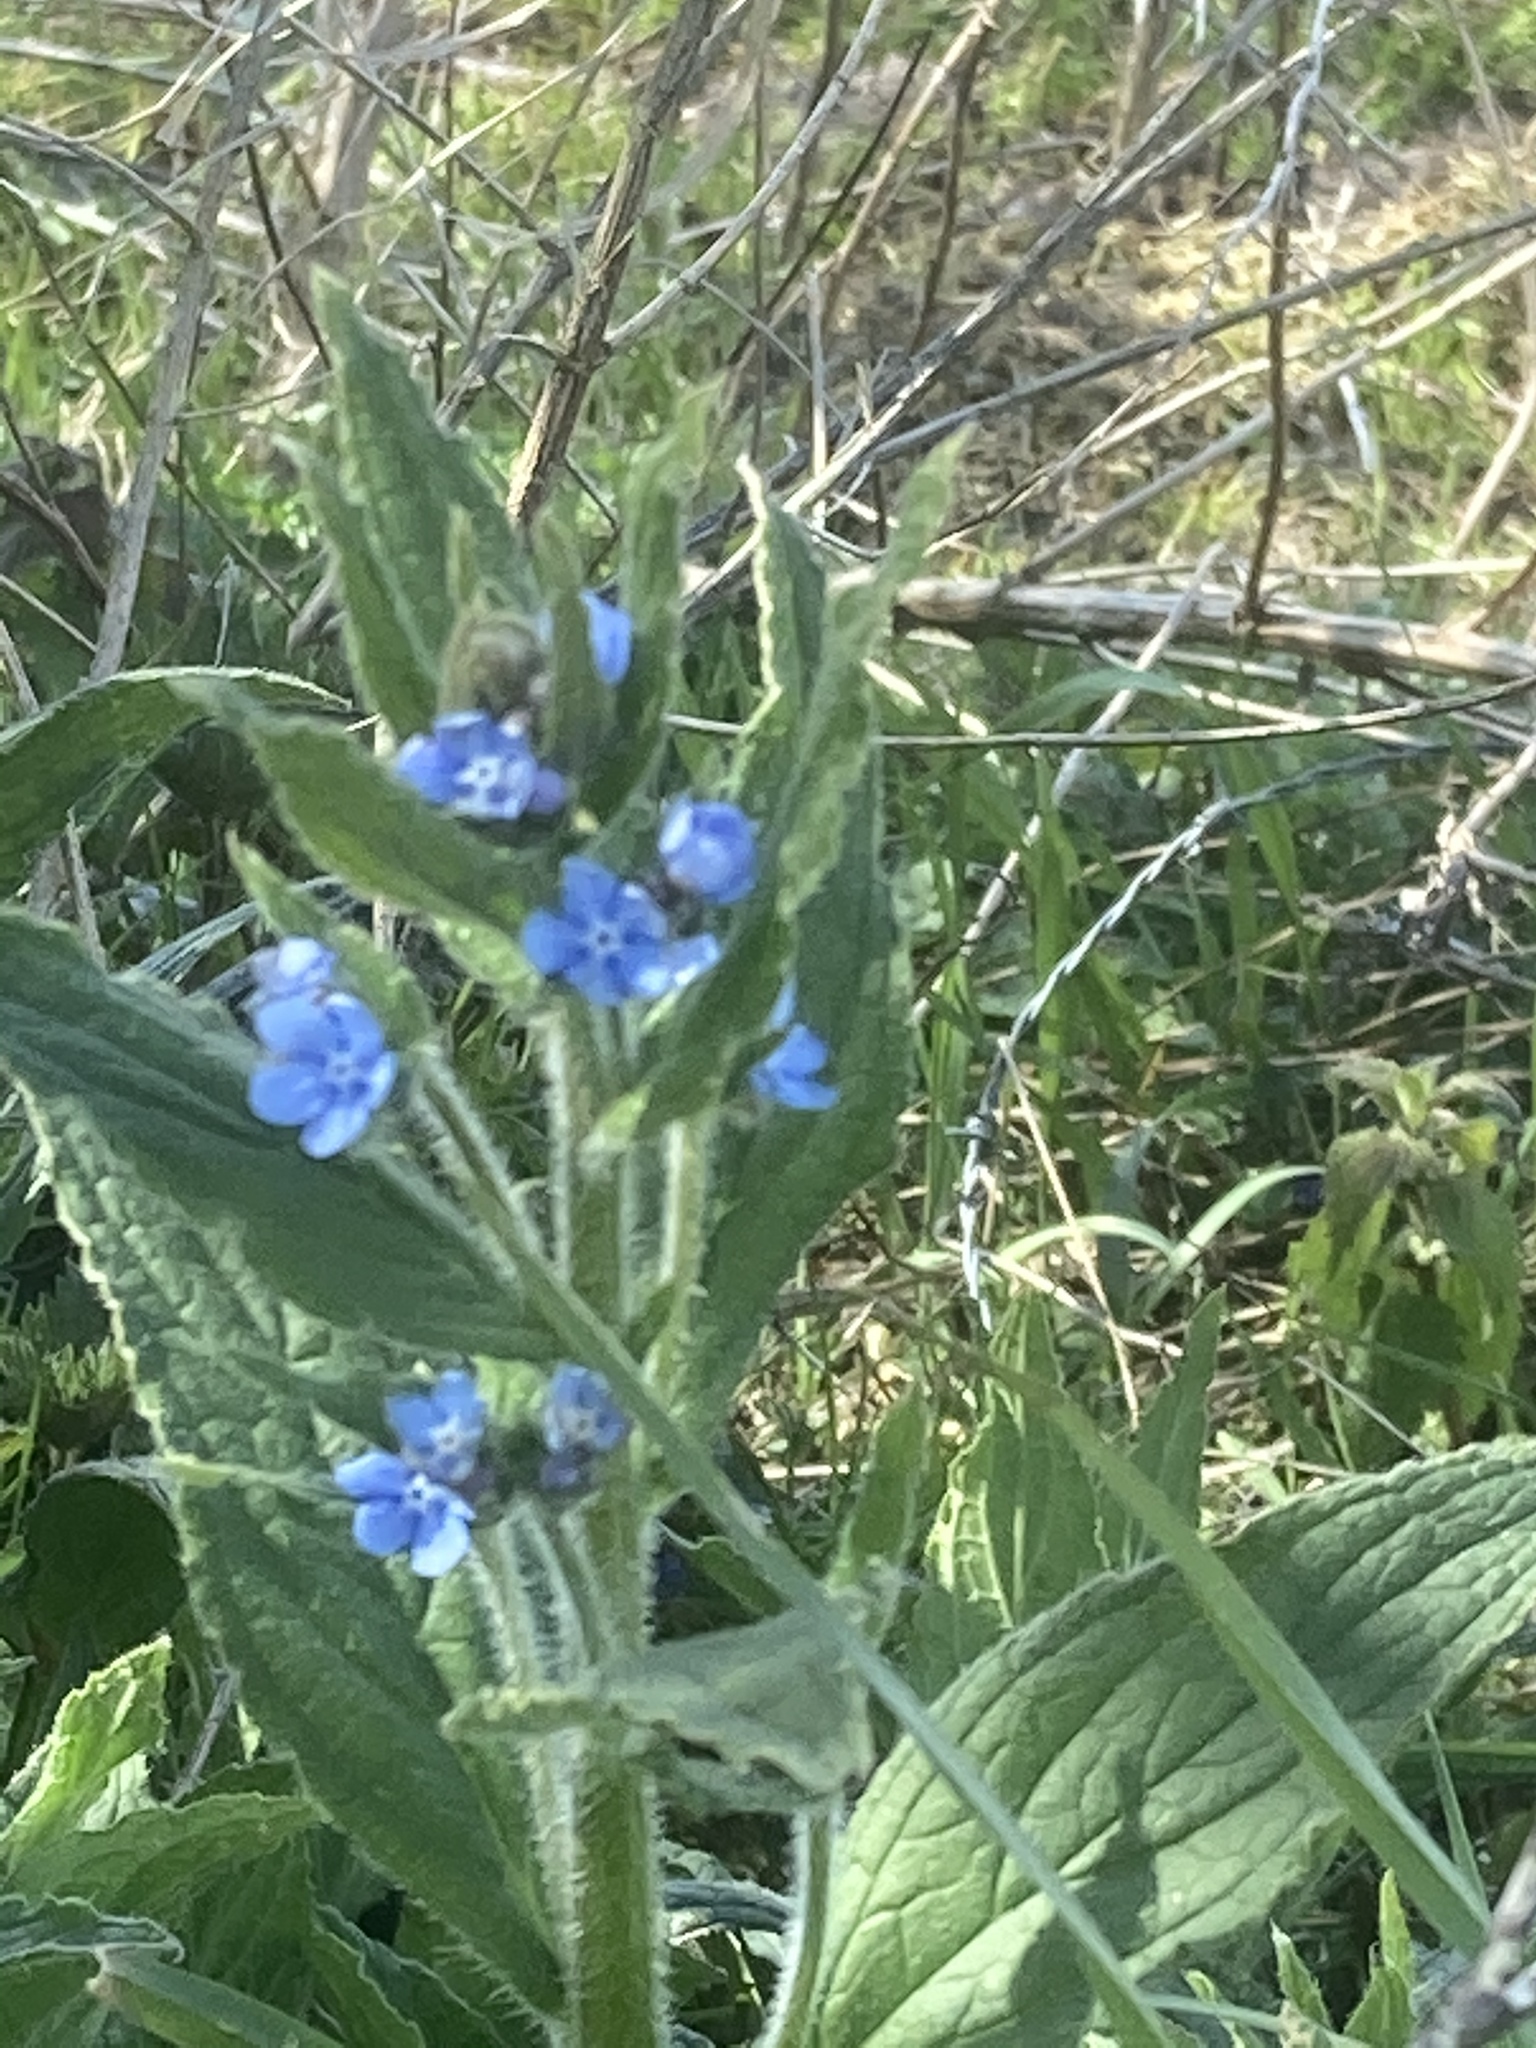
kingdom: Plantae
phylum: Tracheophyta
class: Magnoliopsida
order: Boraginales
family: Boraginaceae
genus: Pentaglottis
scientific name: Pentaglottis sempervirens
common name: Green alkanet
